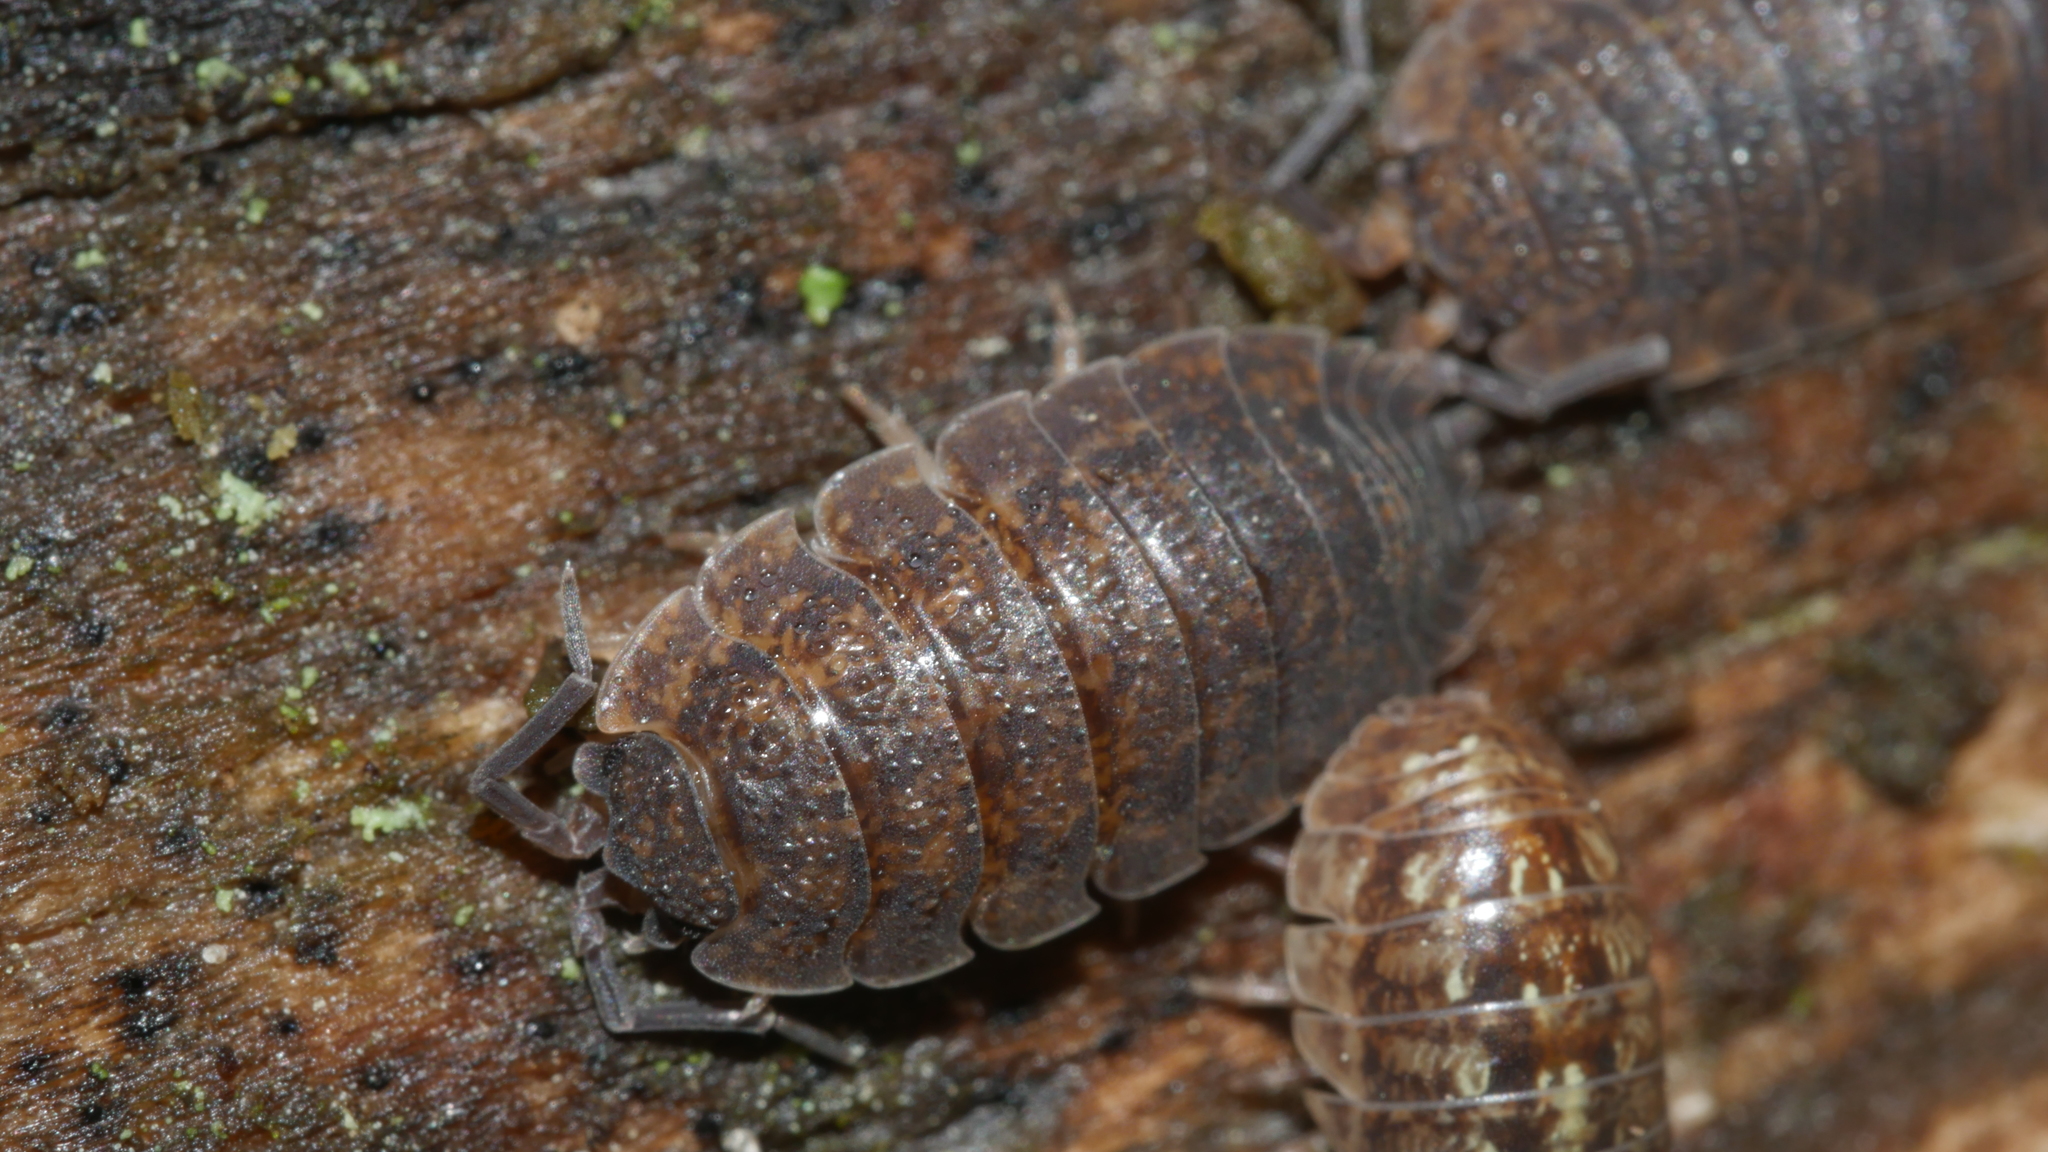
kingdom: Animalia
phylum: Arthropoda
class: Malacostraca
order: Isopoda
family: Porcellionidae
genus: Porcellio
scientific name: Porcellio scaber
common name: Common rough woodlouse
